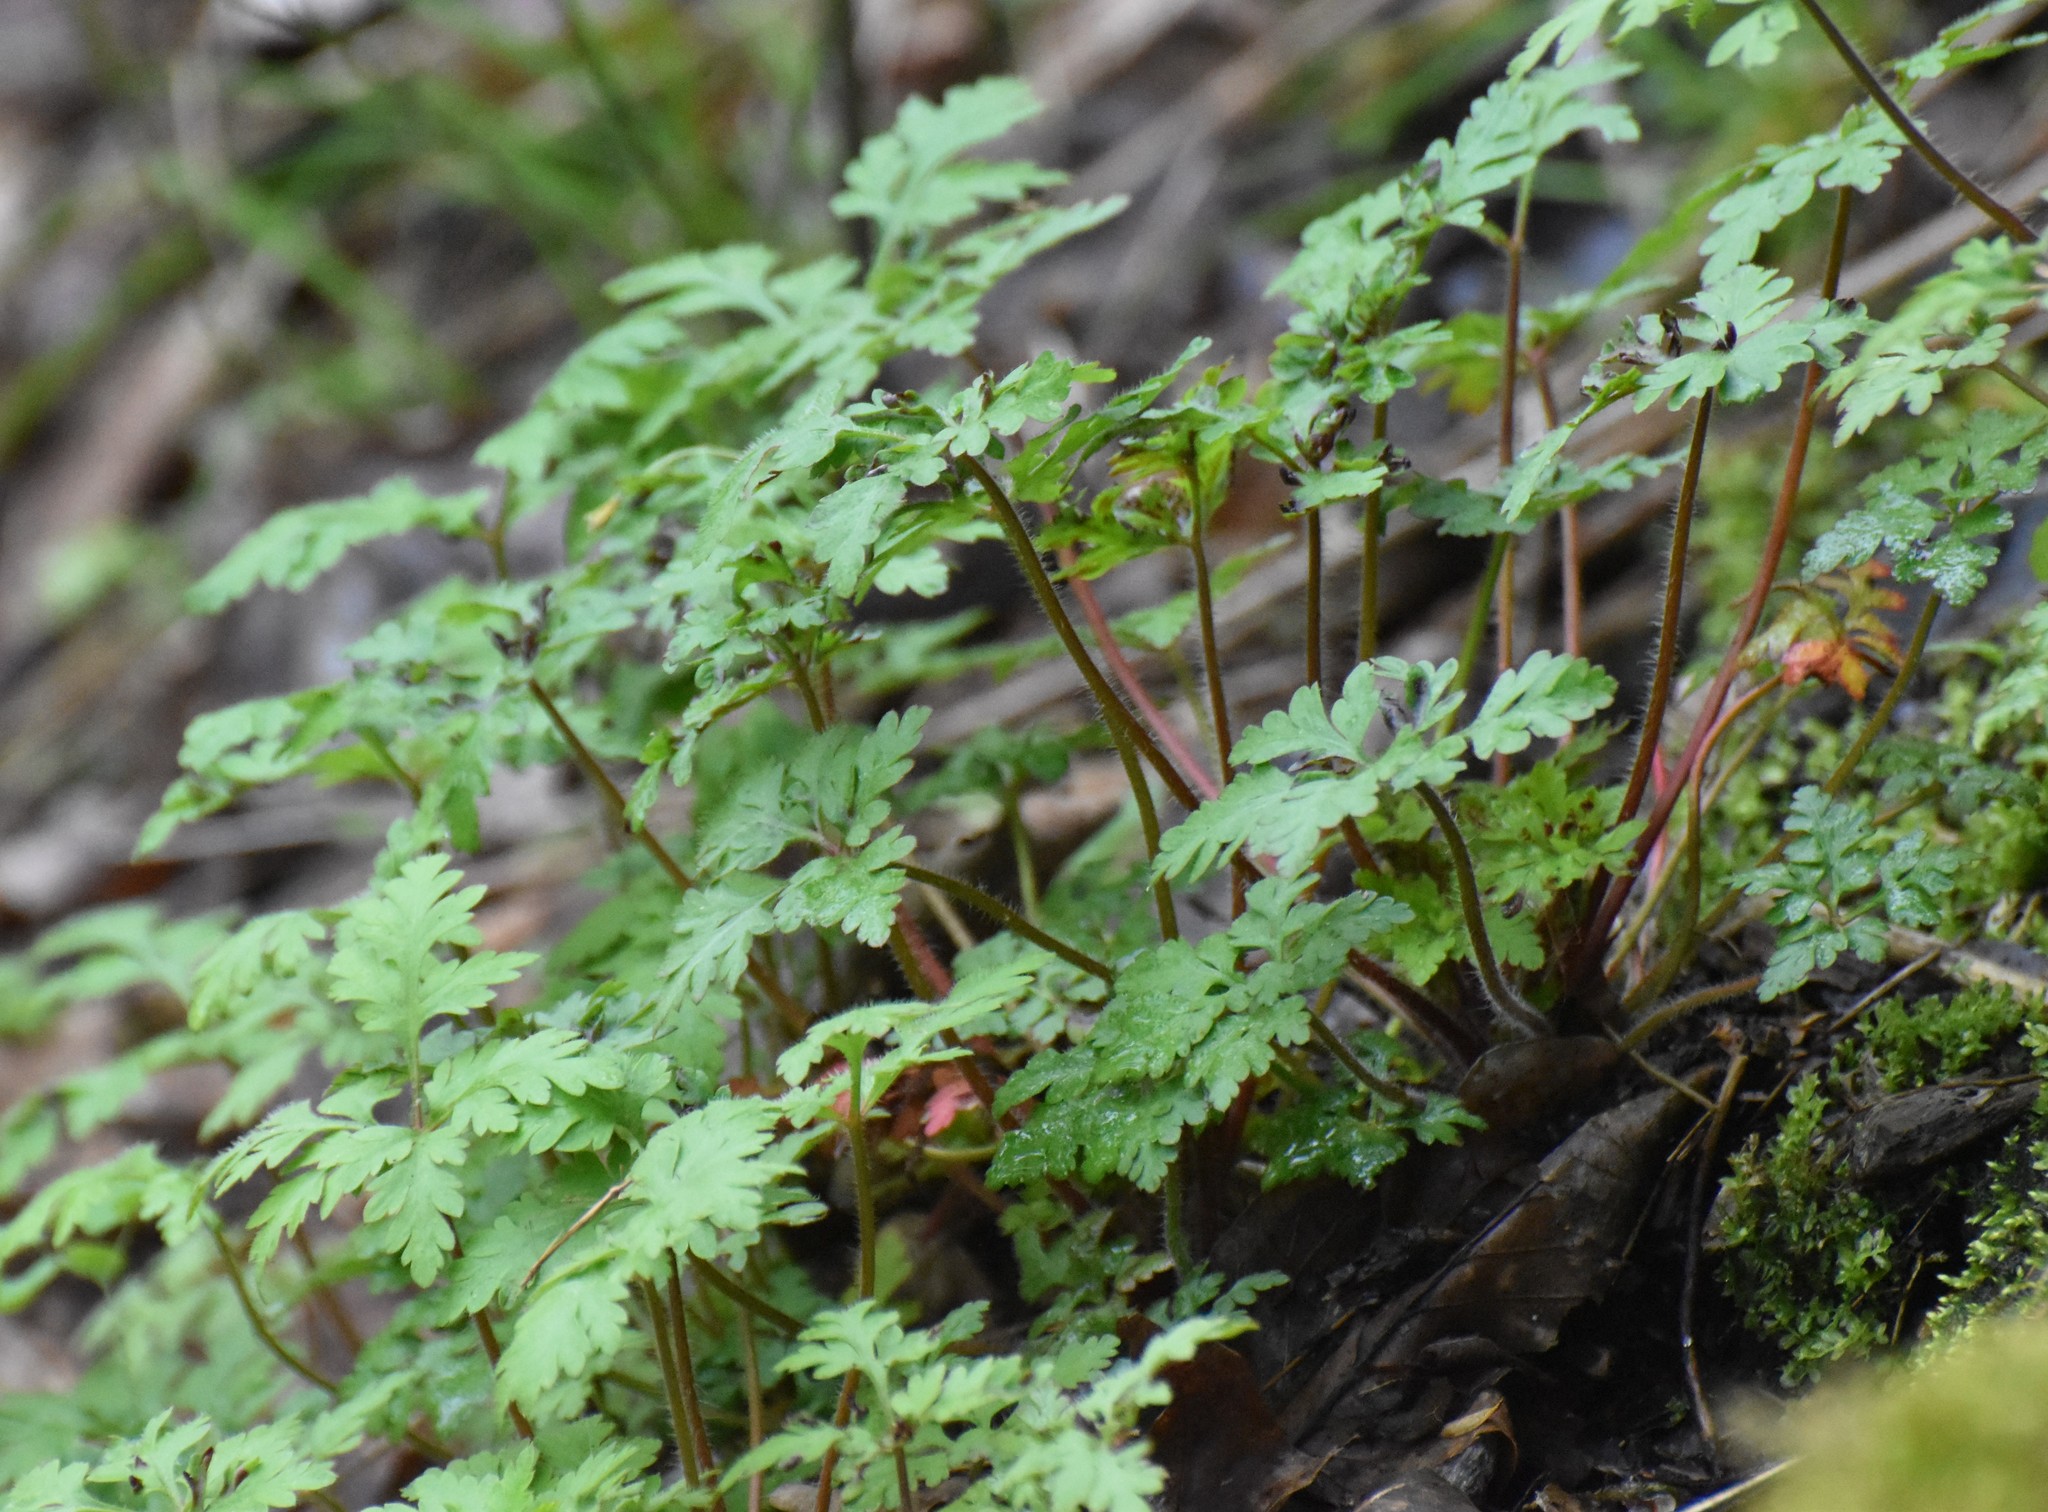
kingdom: Plantae
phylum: Tracheophyta
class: Magnoliopsida
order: Geraniales
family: Geraniaceae
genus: Geranium
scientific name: Geranium robertianum
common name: Herb-robert
